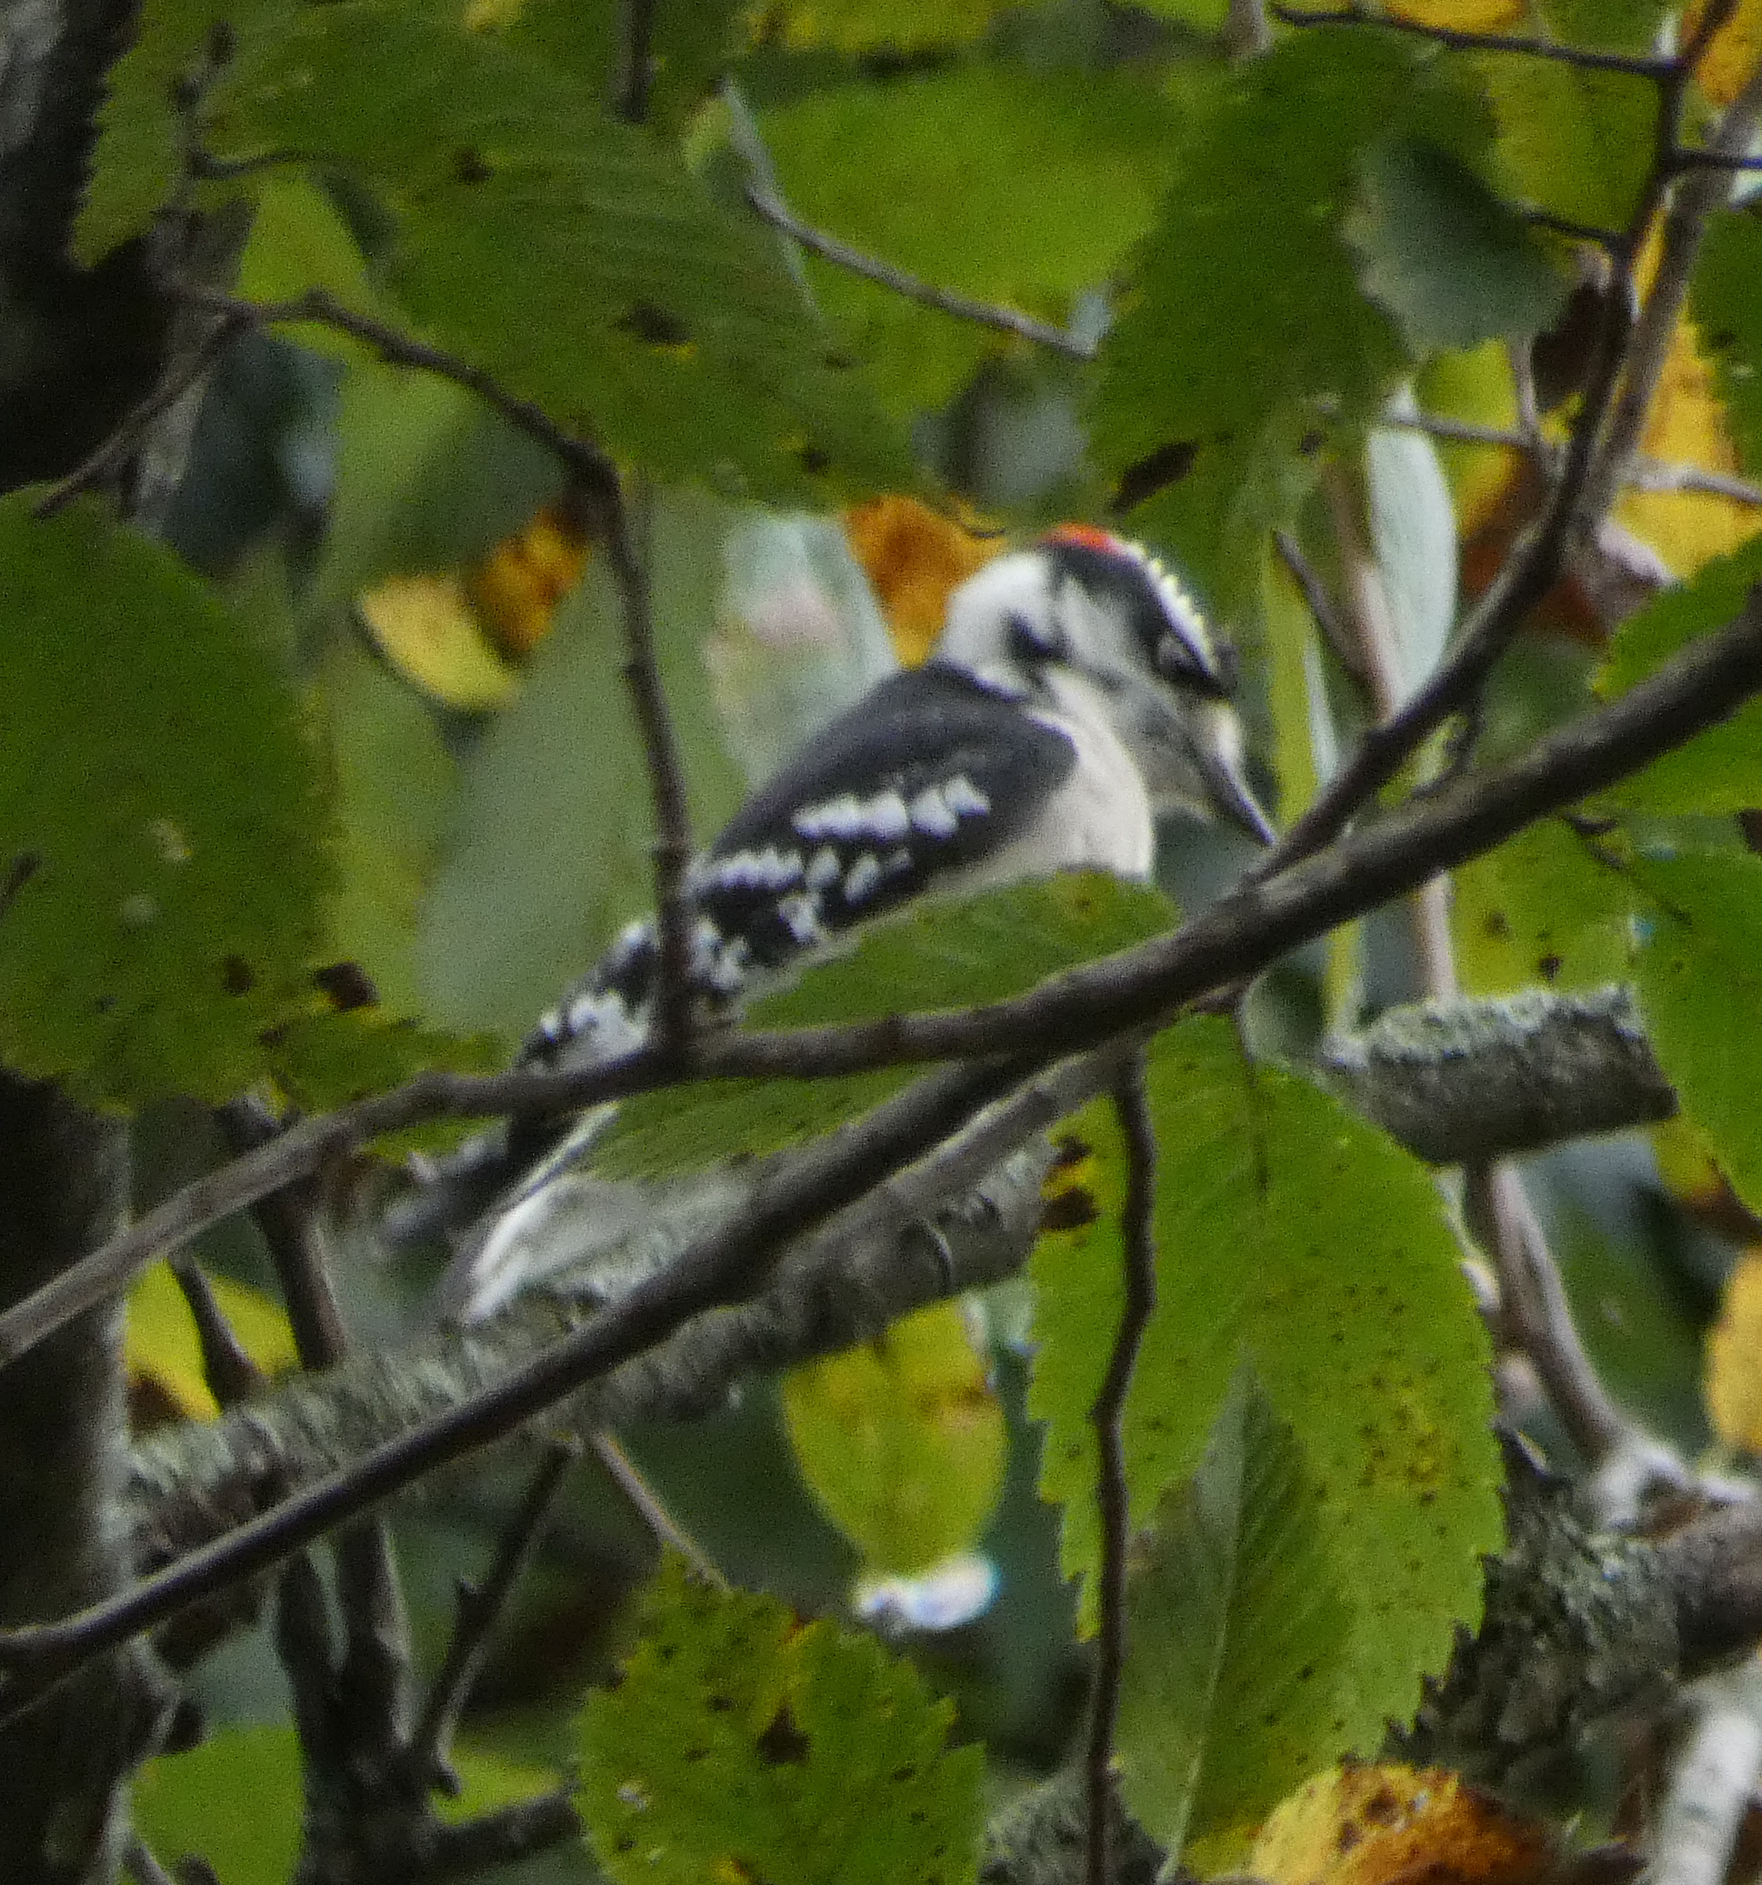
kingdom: Animalia
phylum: Chordata
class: Aves
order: Piciformes
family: Picidae
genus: Dryobates
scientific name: Dryobates pubescens
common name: Downy woodpecker
